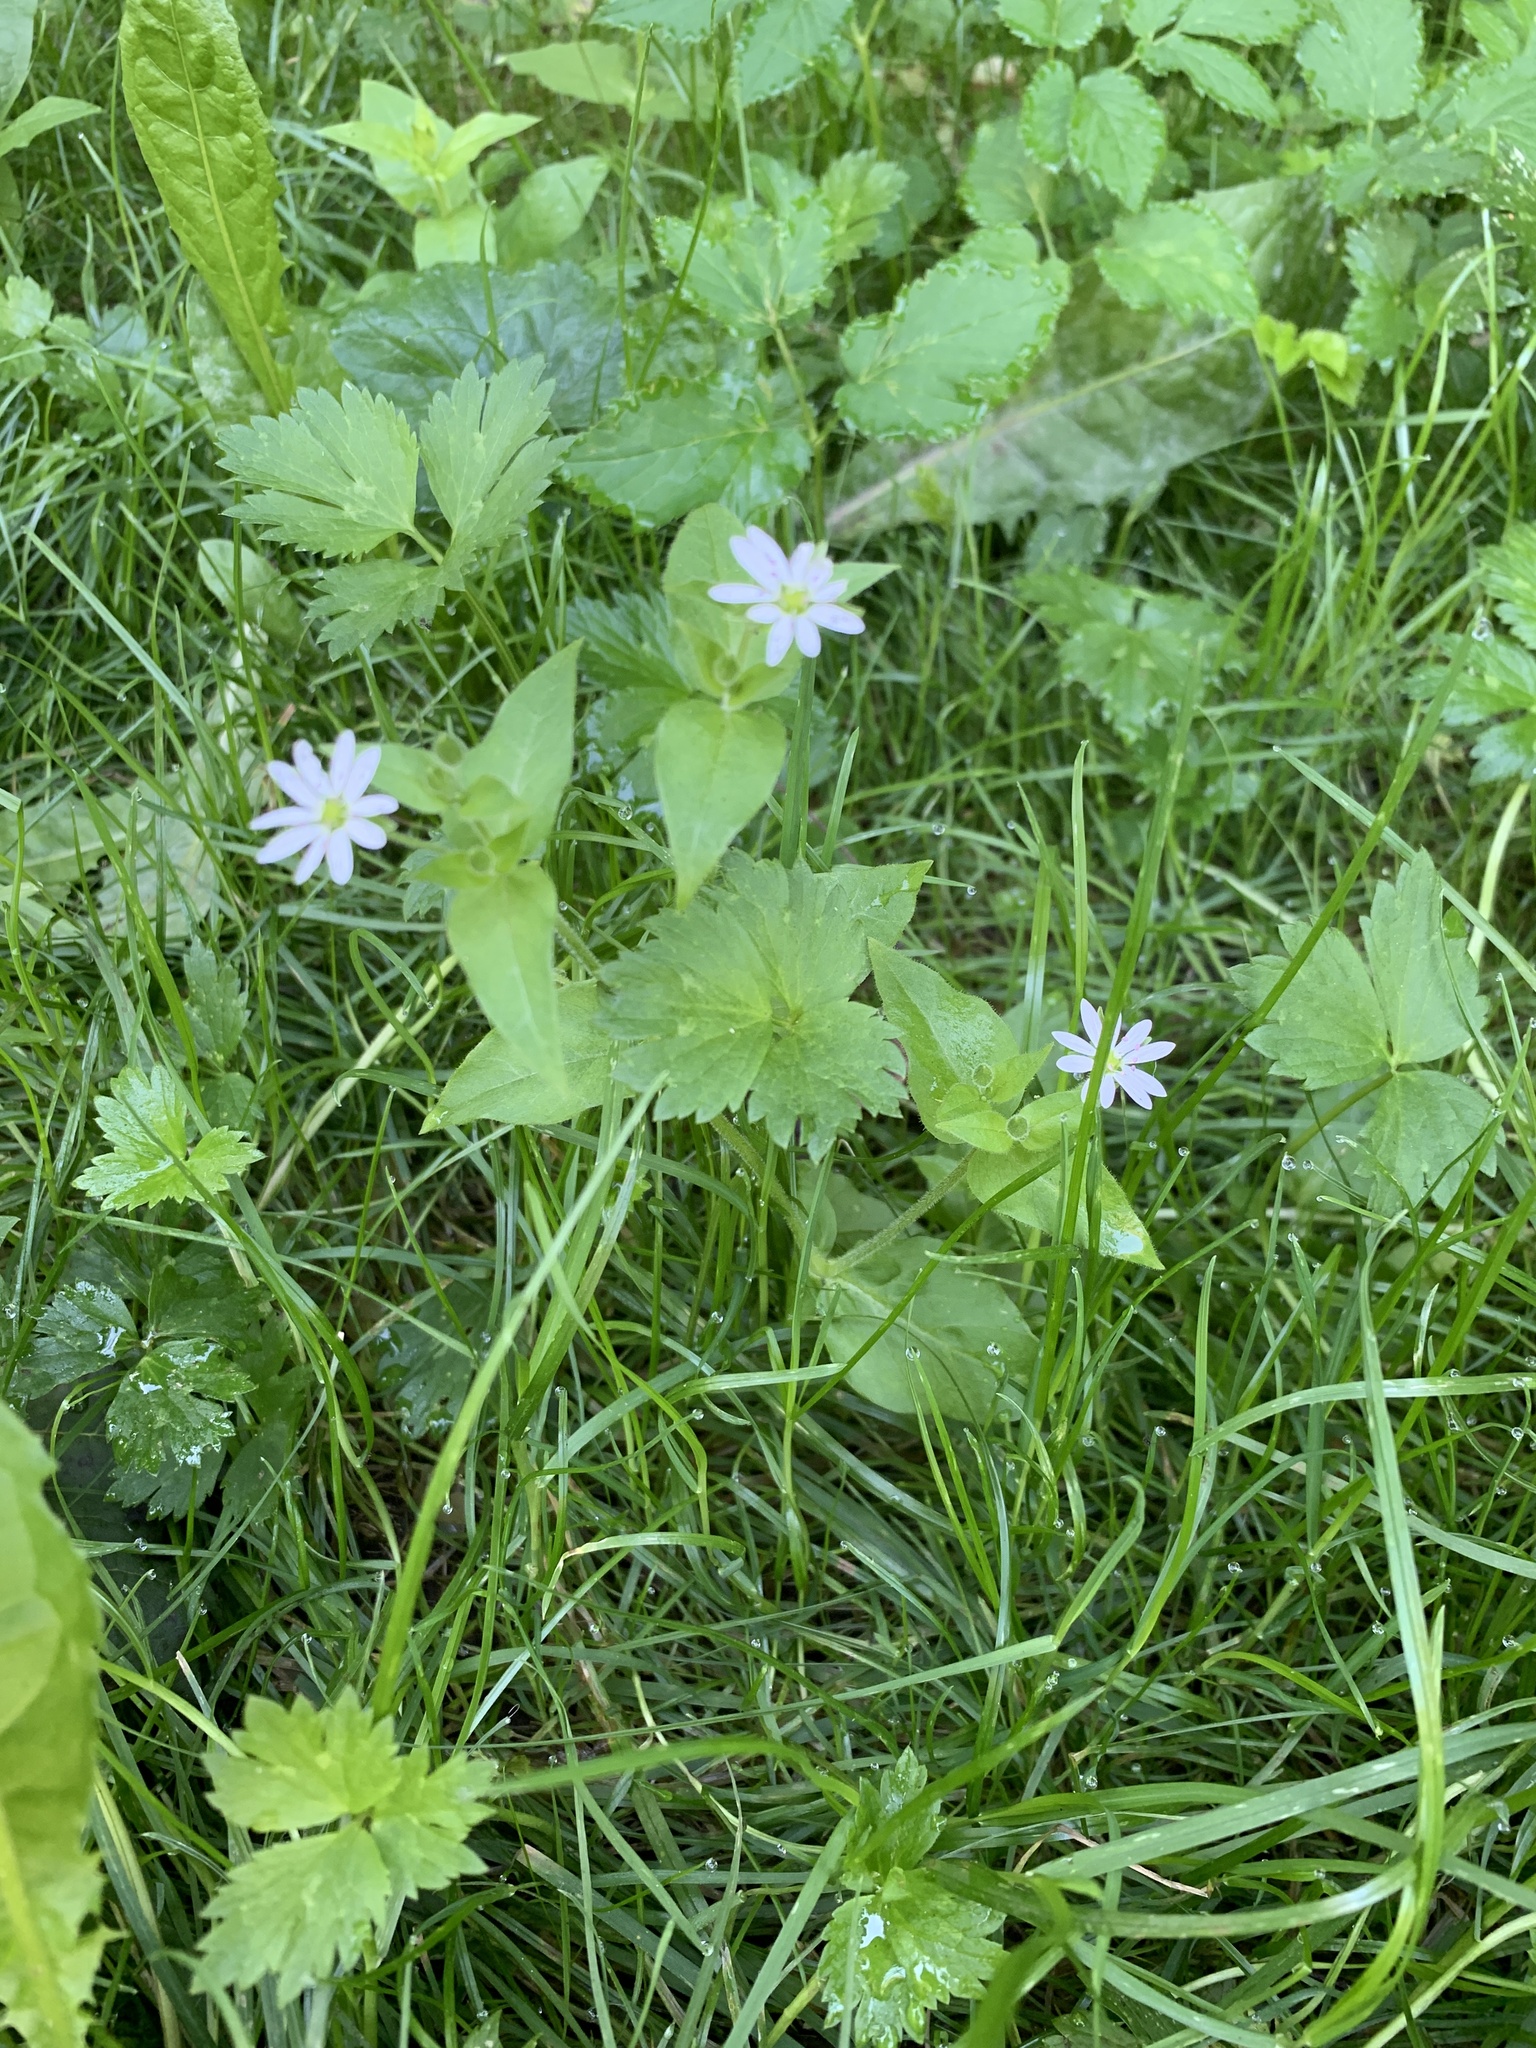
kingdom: Plantae
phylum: Tracheophyta
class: Magnoliopsida
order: Caryophyllales
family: Caryophyllaceae
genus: Stellaria
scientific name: Stellaria aquatica
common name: Water chickweed
